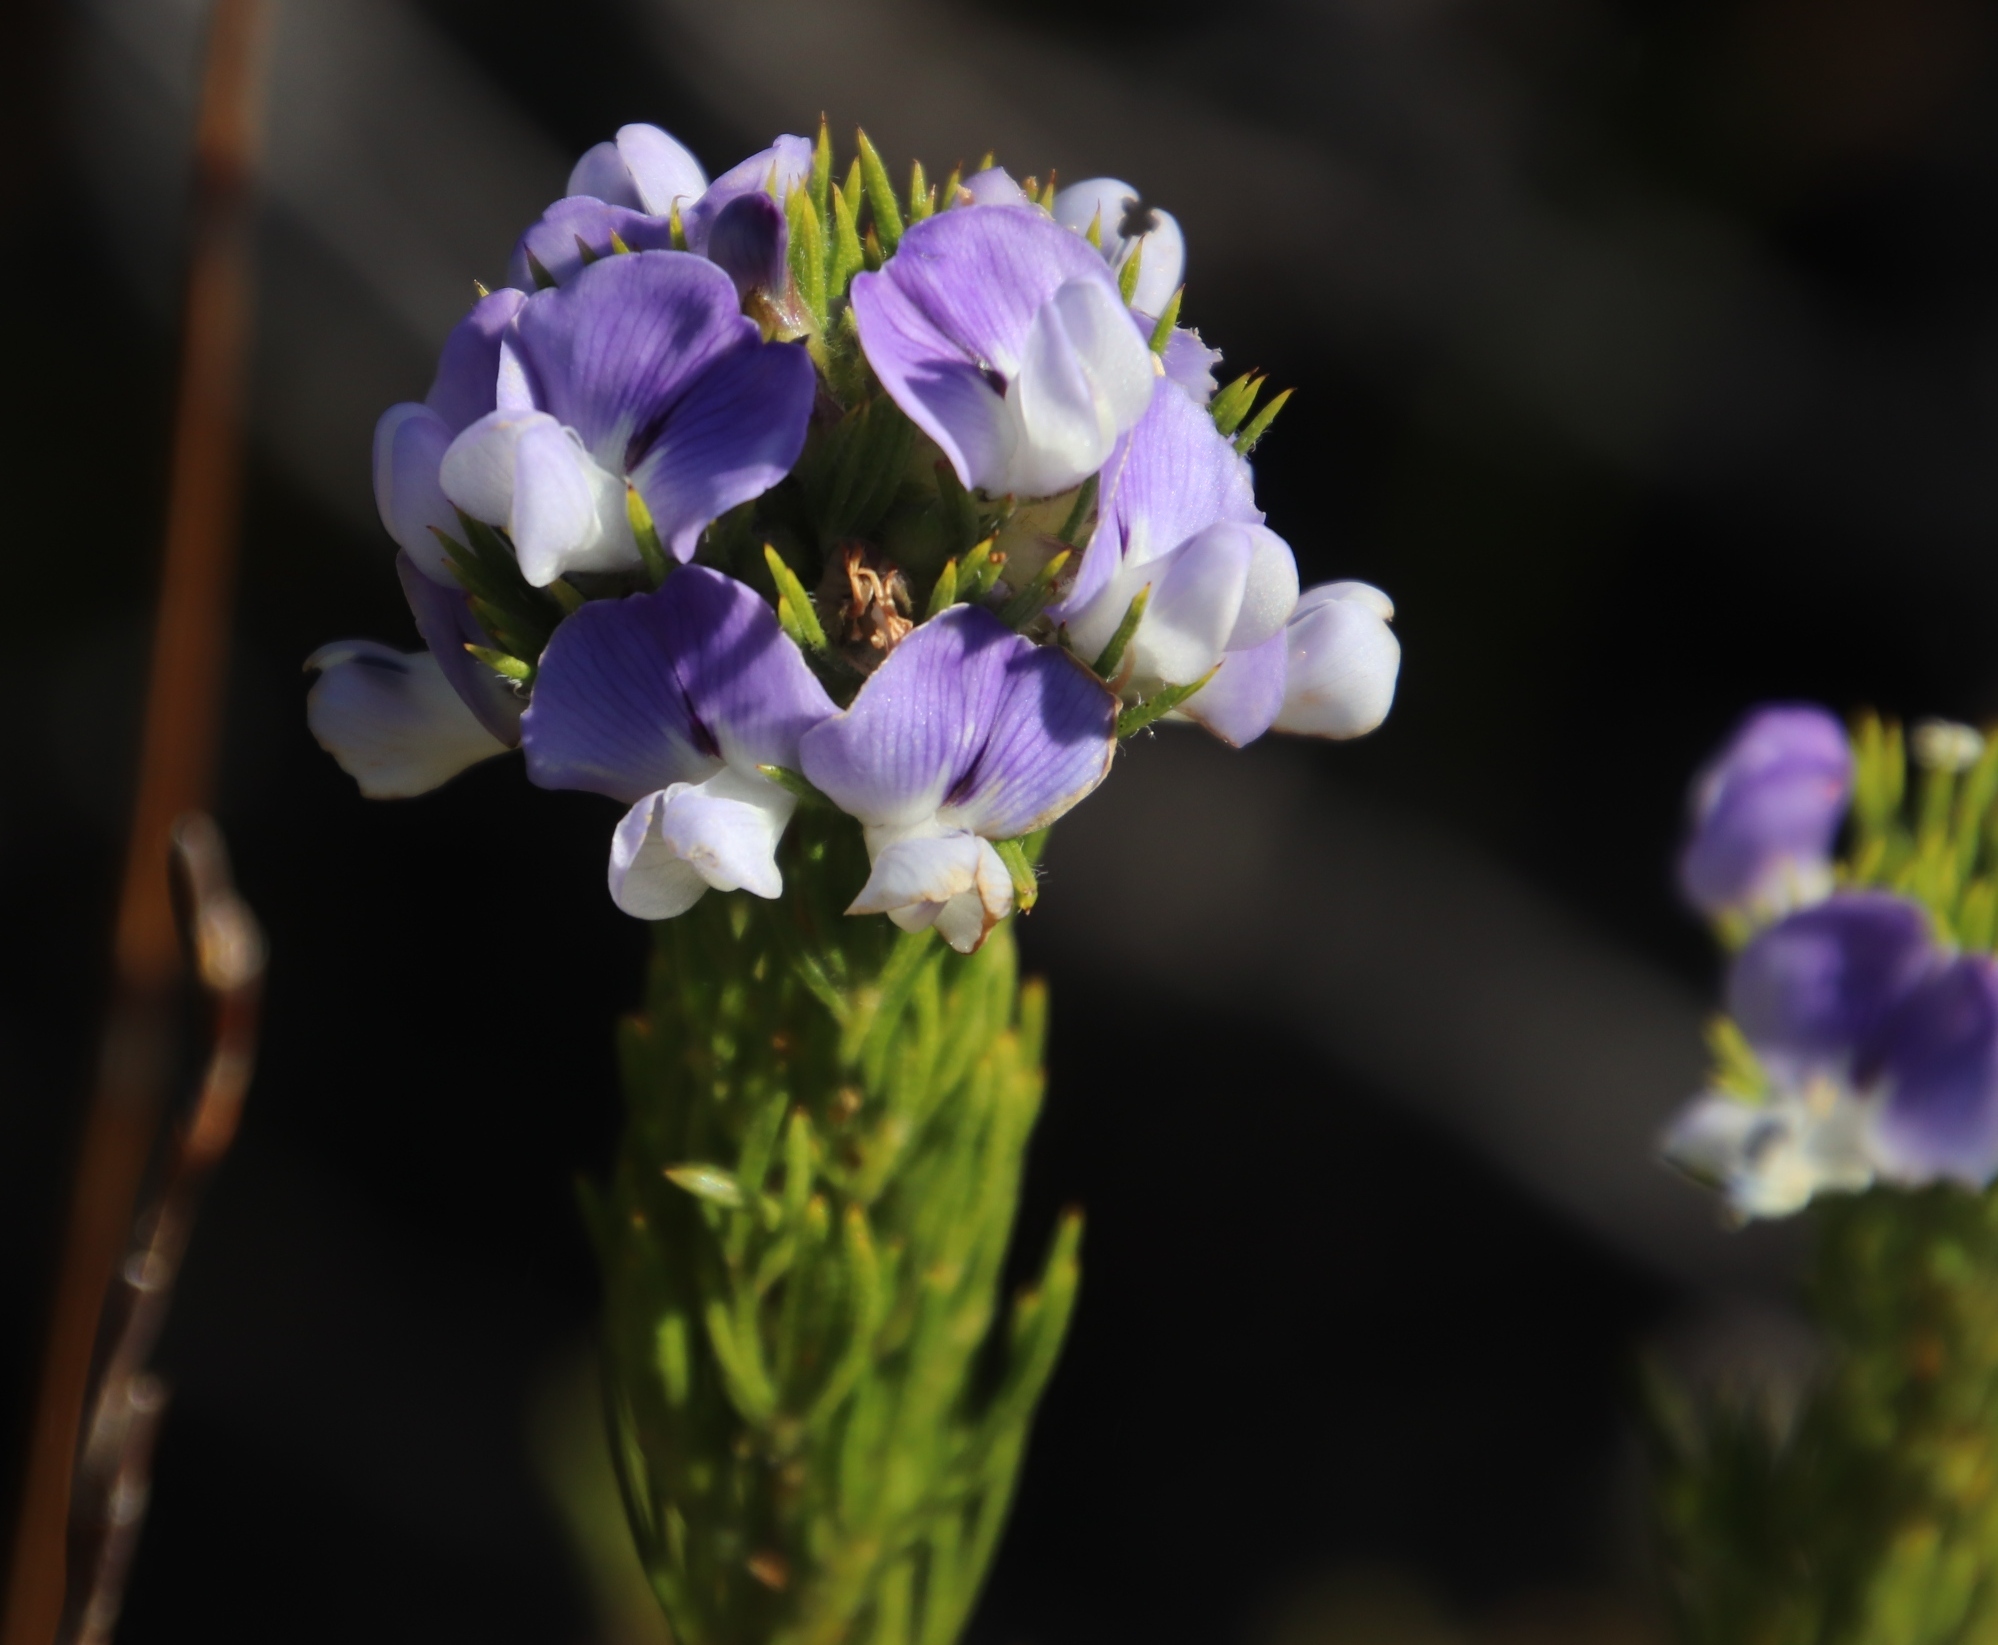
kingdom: Plantae
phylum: Tracheophyta
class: Magnoliopsida
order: Fabales
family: Fabaceae
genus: Psoralea
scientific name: Psoralea pinnata
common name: African scurfpea
